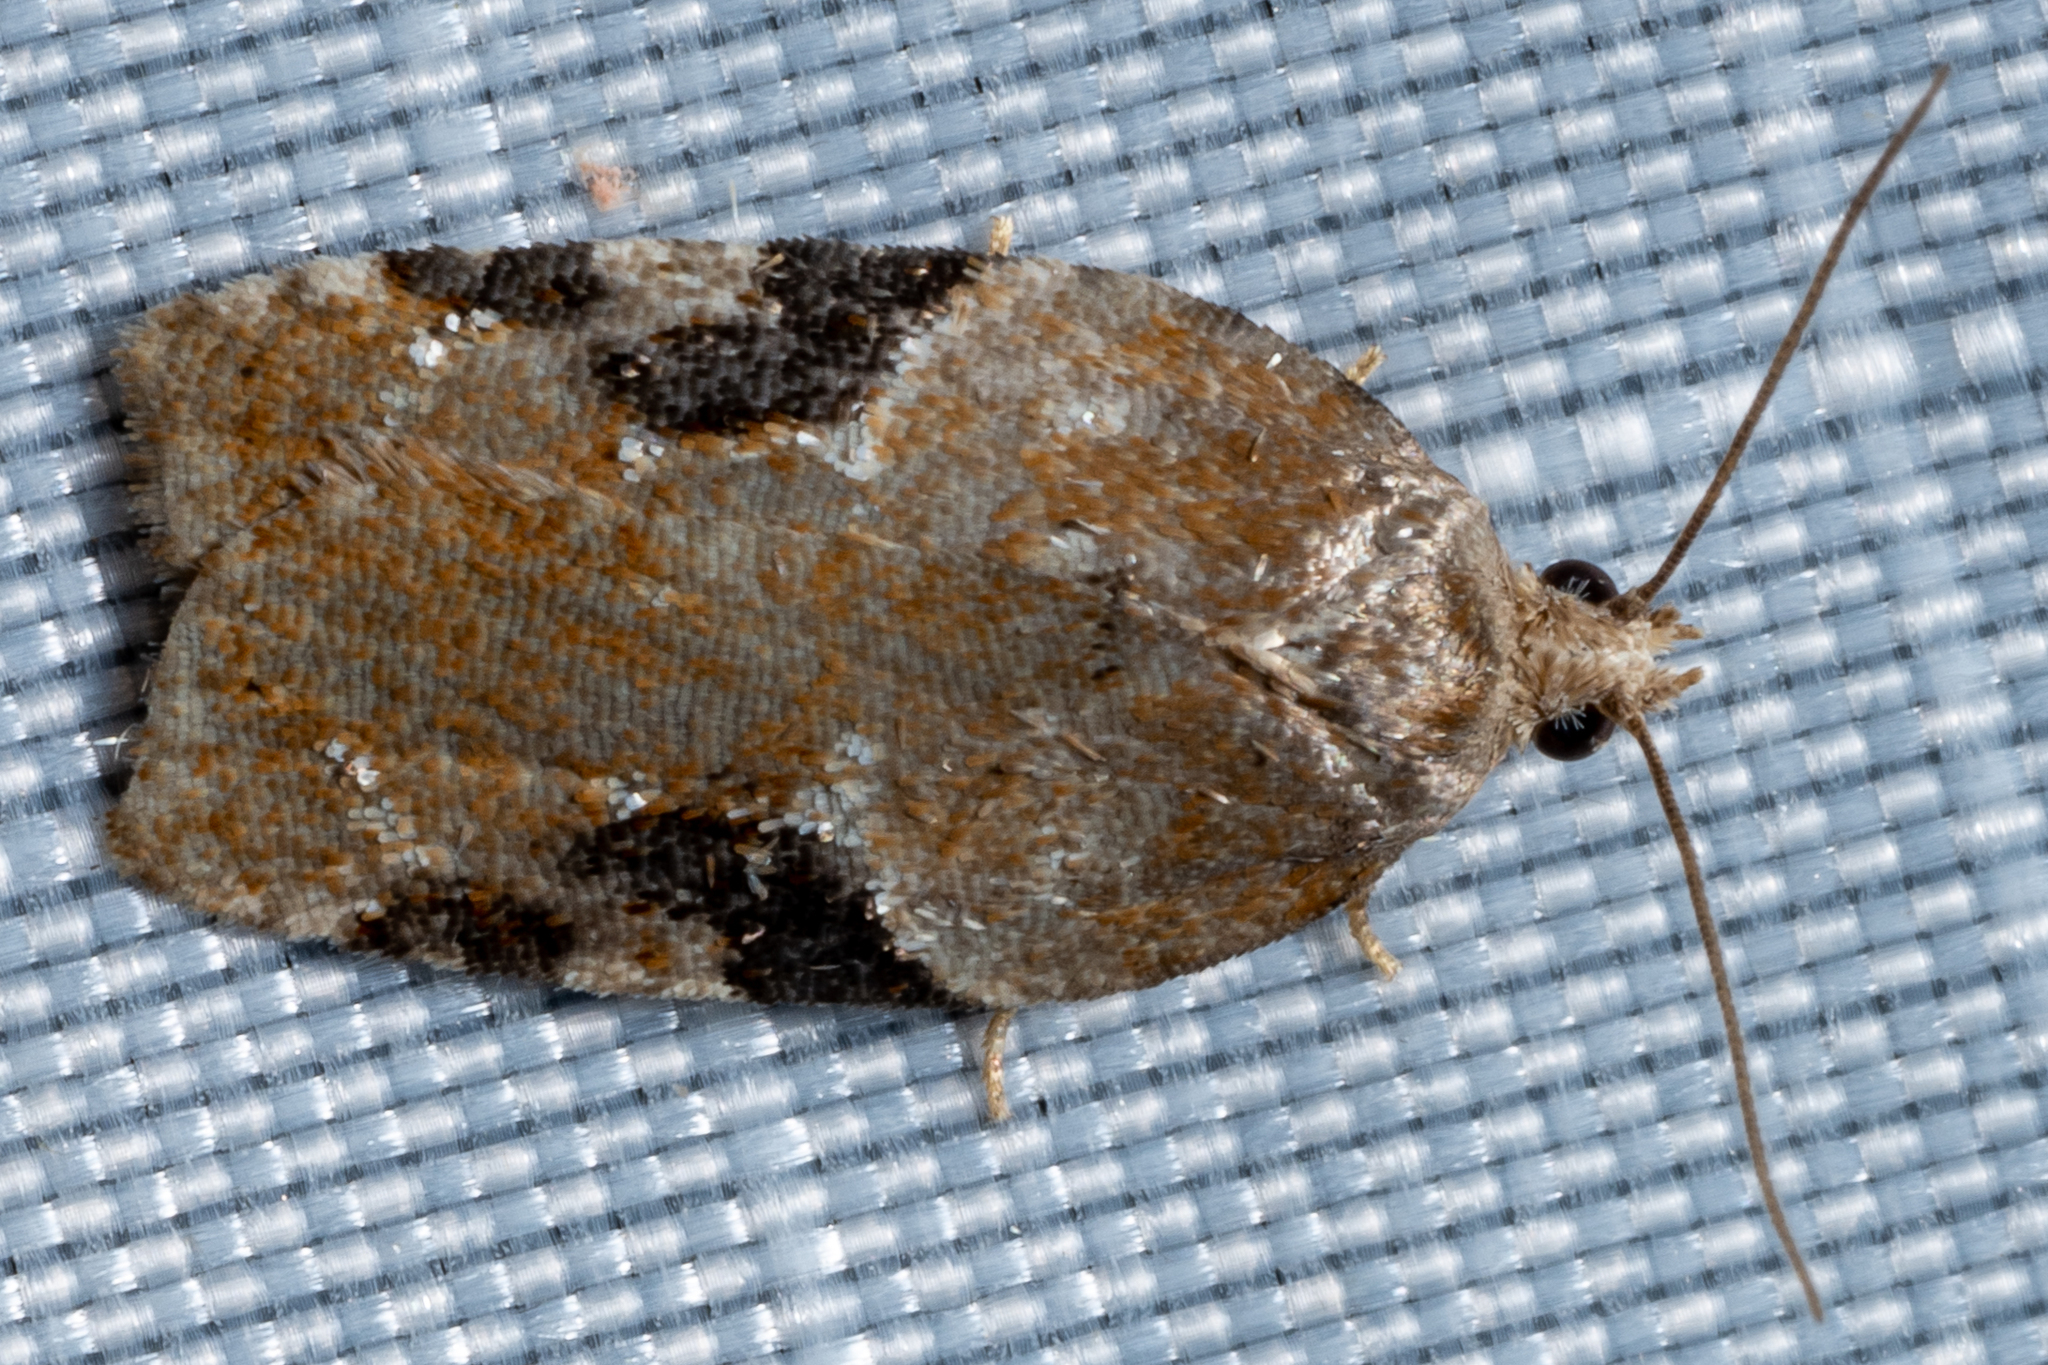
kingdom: Animalia
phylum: Arthropoda
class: Insecta
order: Lepidoptera
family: Tortricidae
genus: Acleris
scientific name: Acleris braunana
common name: Alder leafroller
